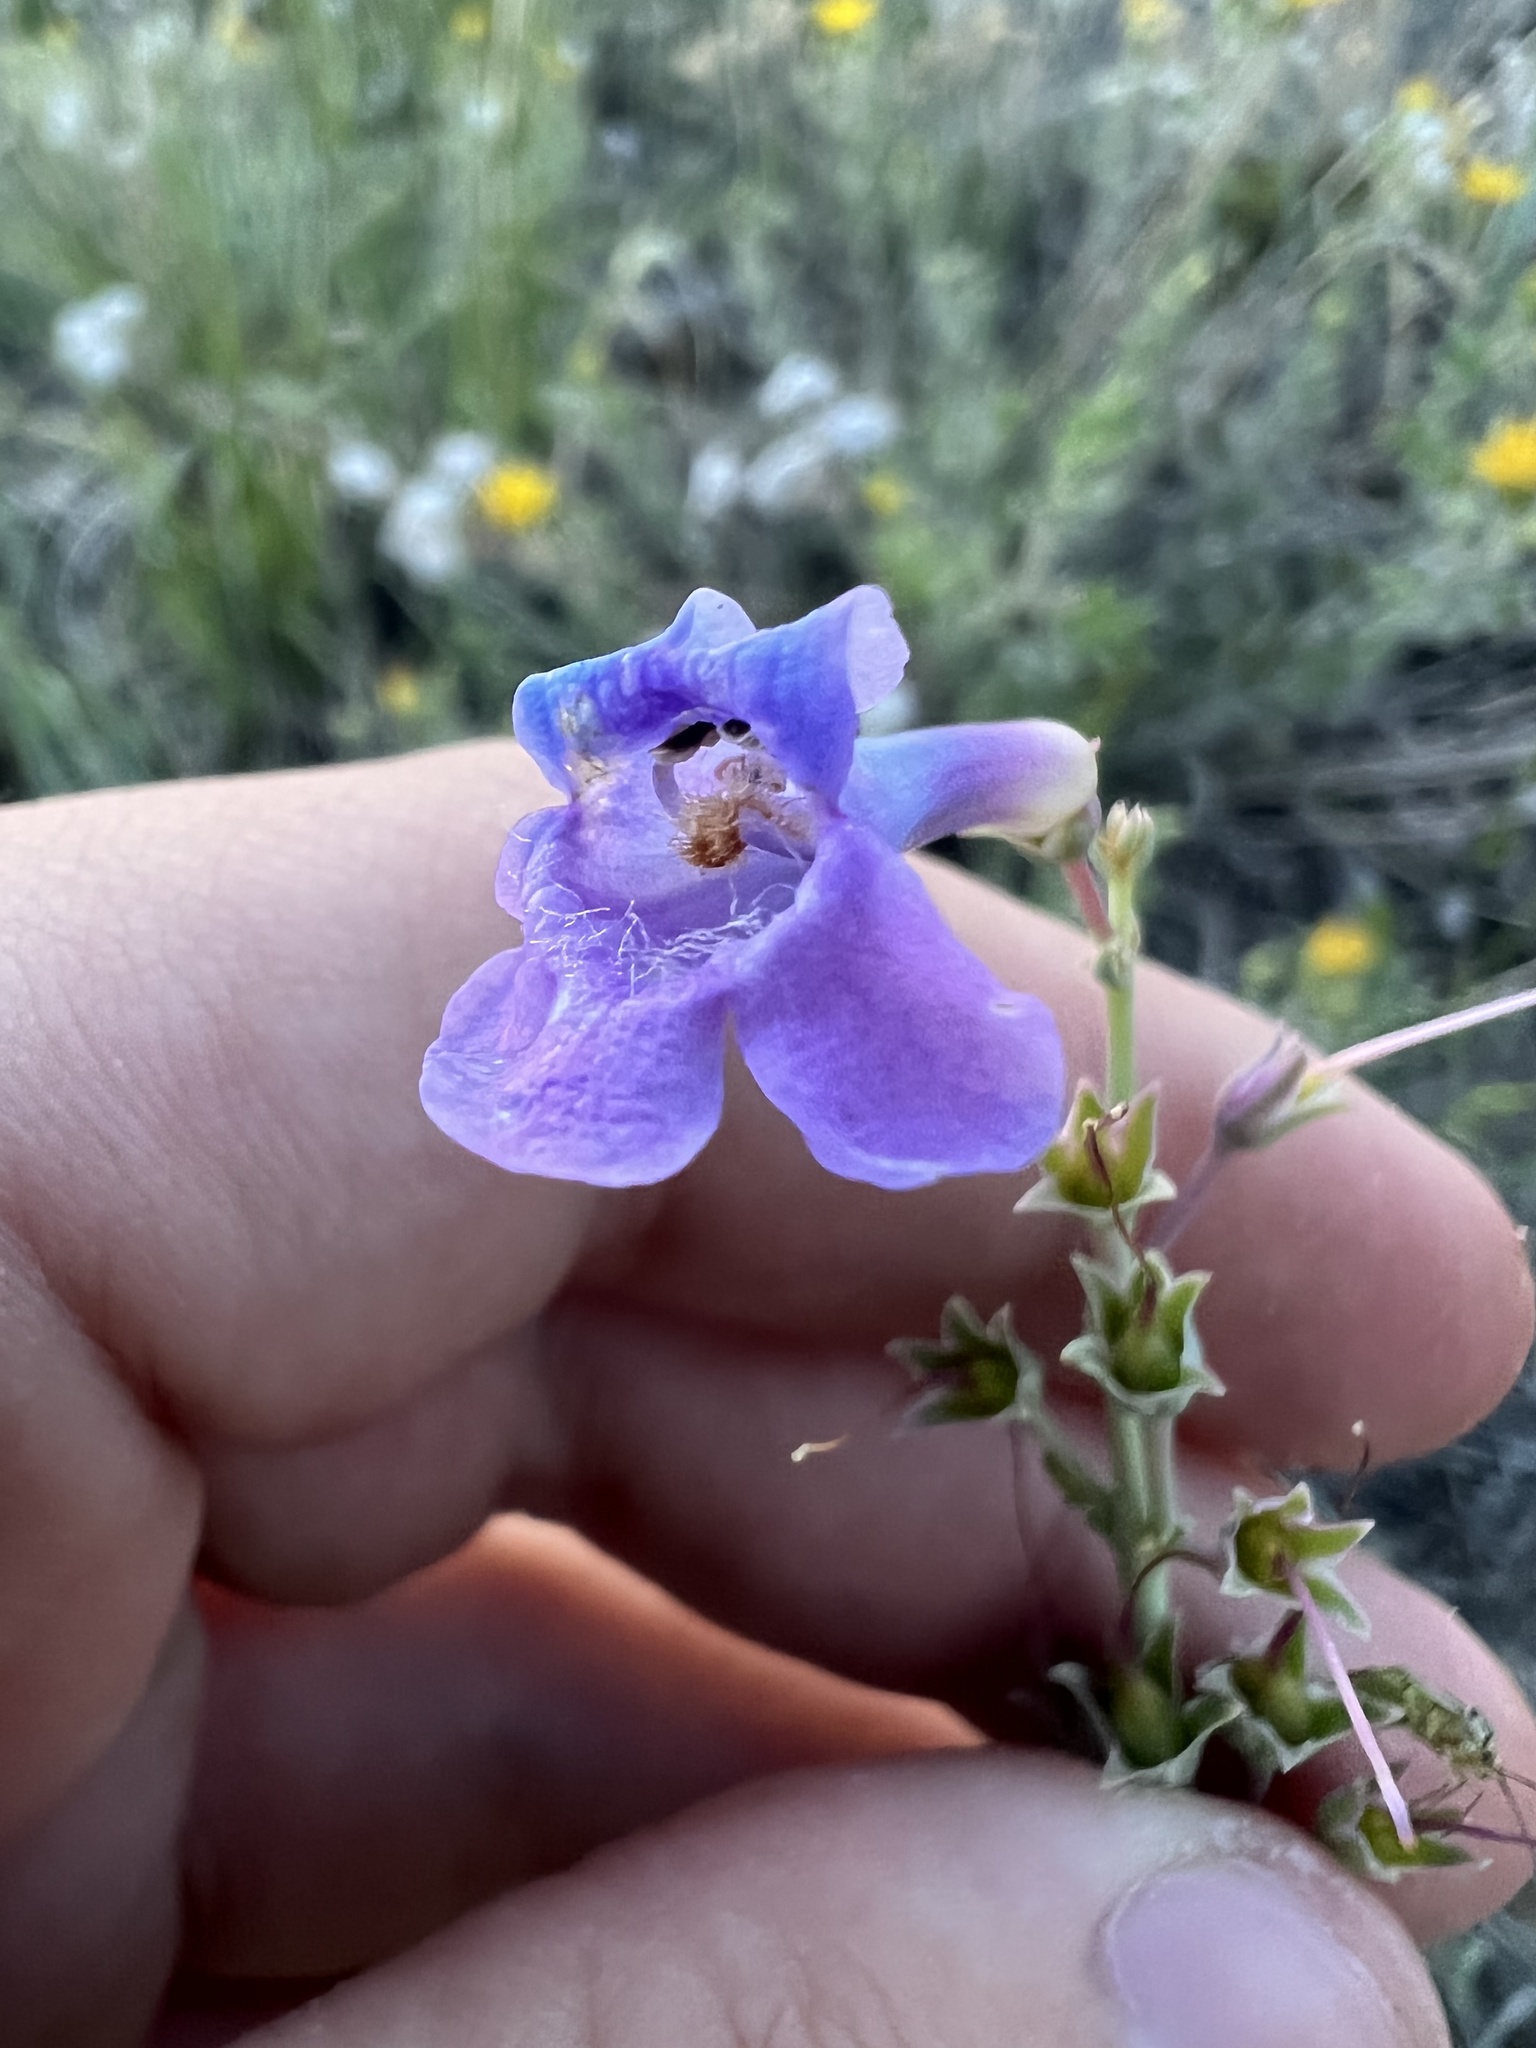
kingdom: Plantae
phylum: Tracheophyta
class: Magnoliopsida
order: Lamiales
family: Plantaginaceae
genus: Penstemon
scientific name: Penstemon secundiflorus
